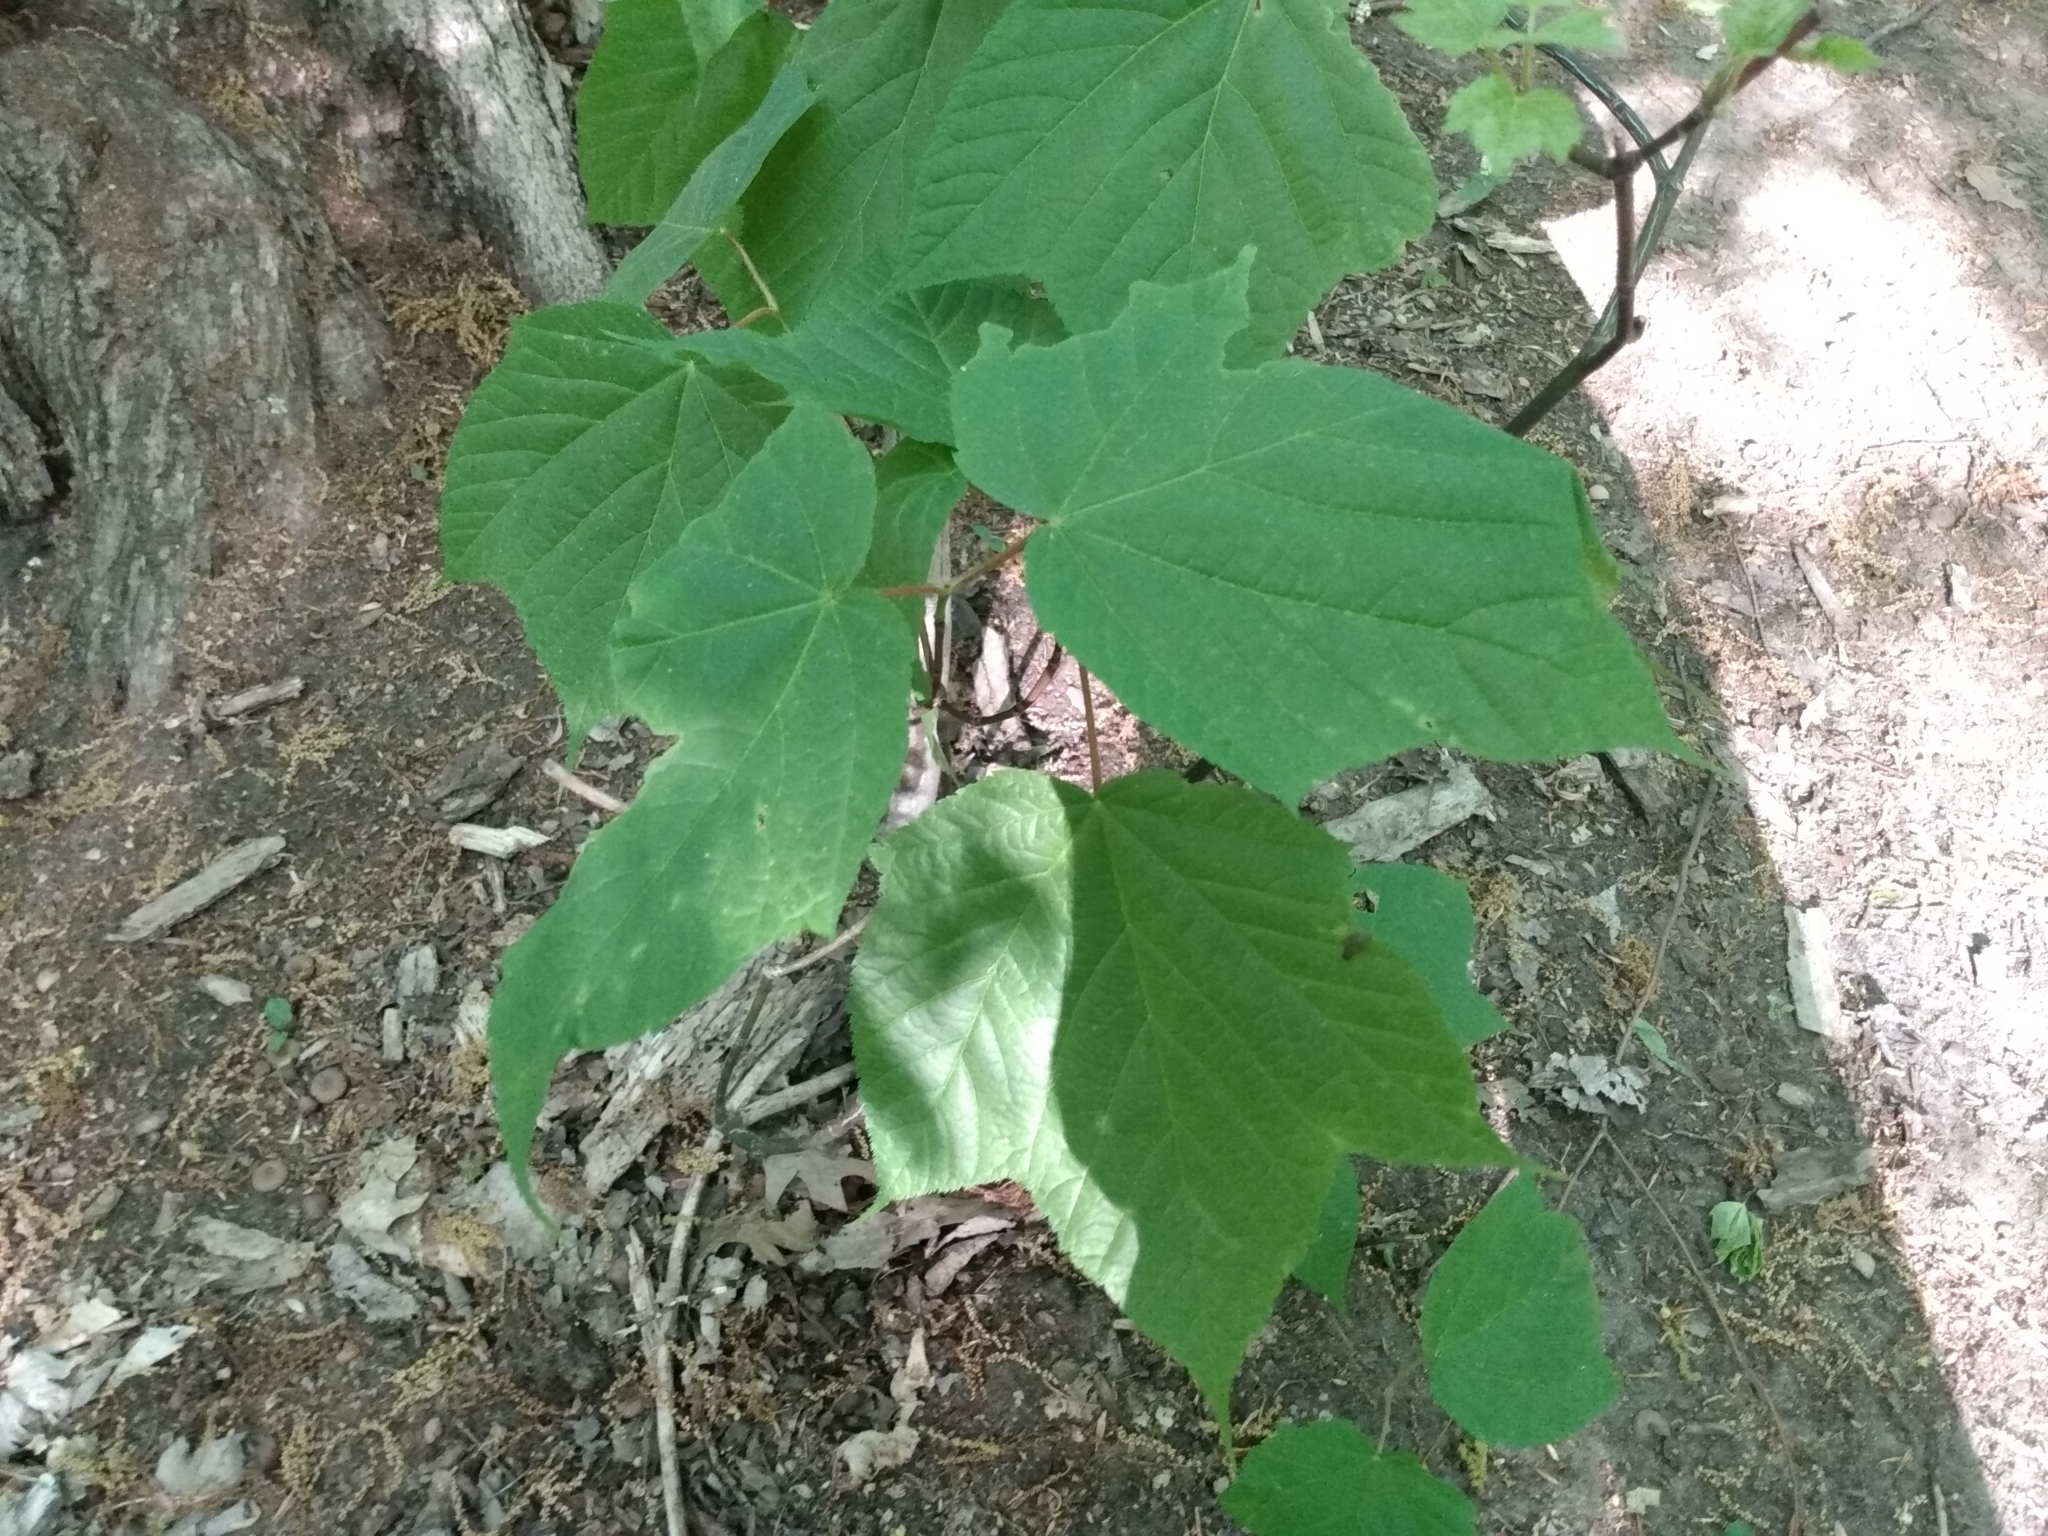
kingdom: Plantae
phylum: Tracheophyta
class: Magnoliopsida
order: Sapindales
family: Sapindaceae
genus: Acer
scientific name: Acer pensylvanicum
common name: Moosewood
